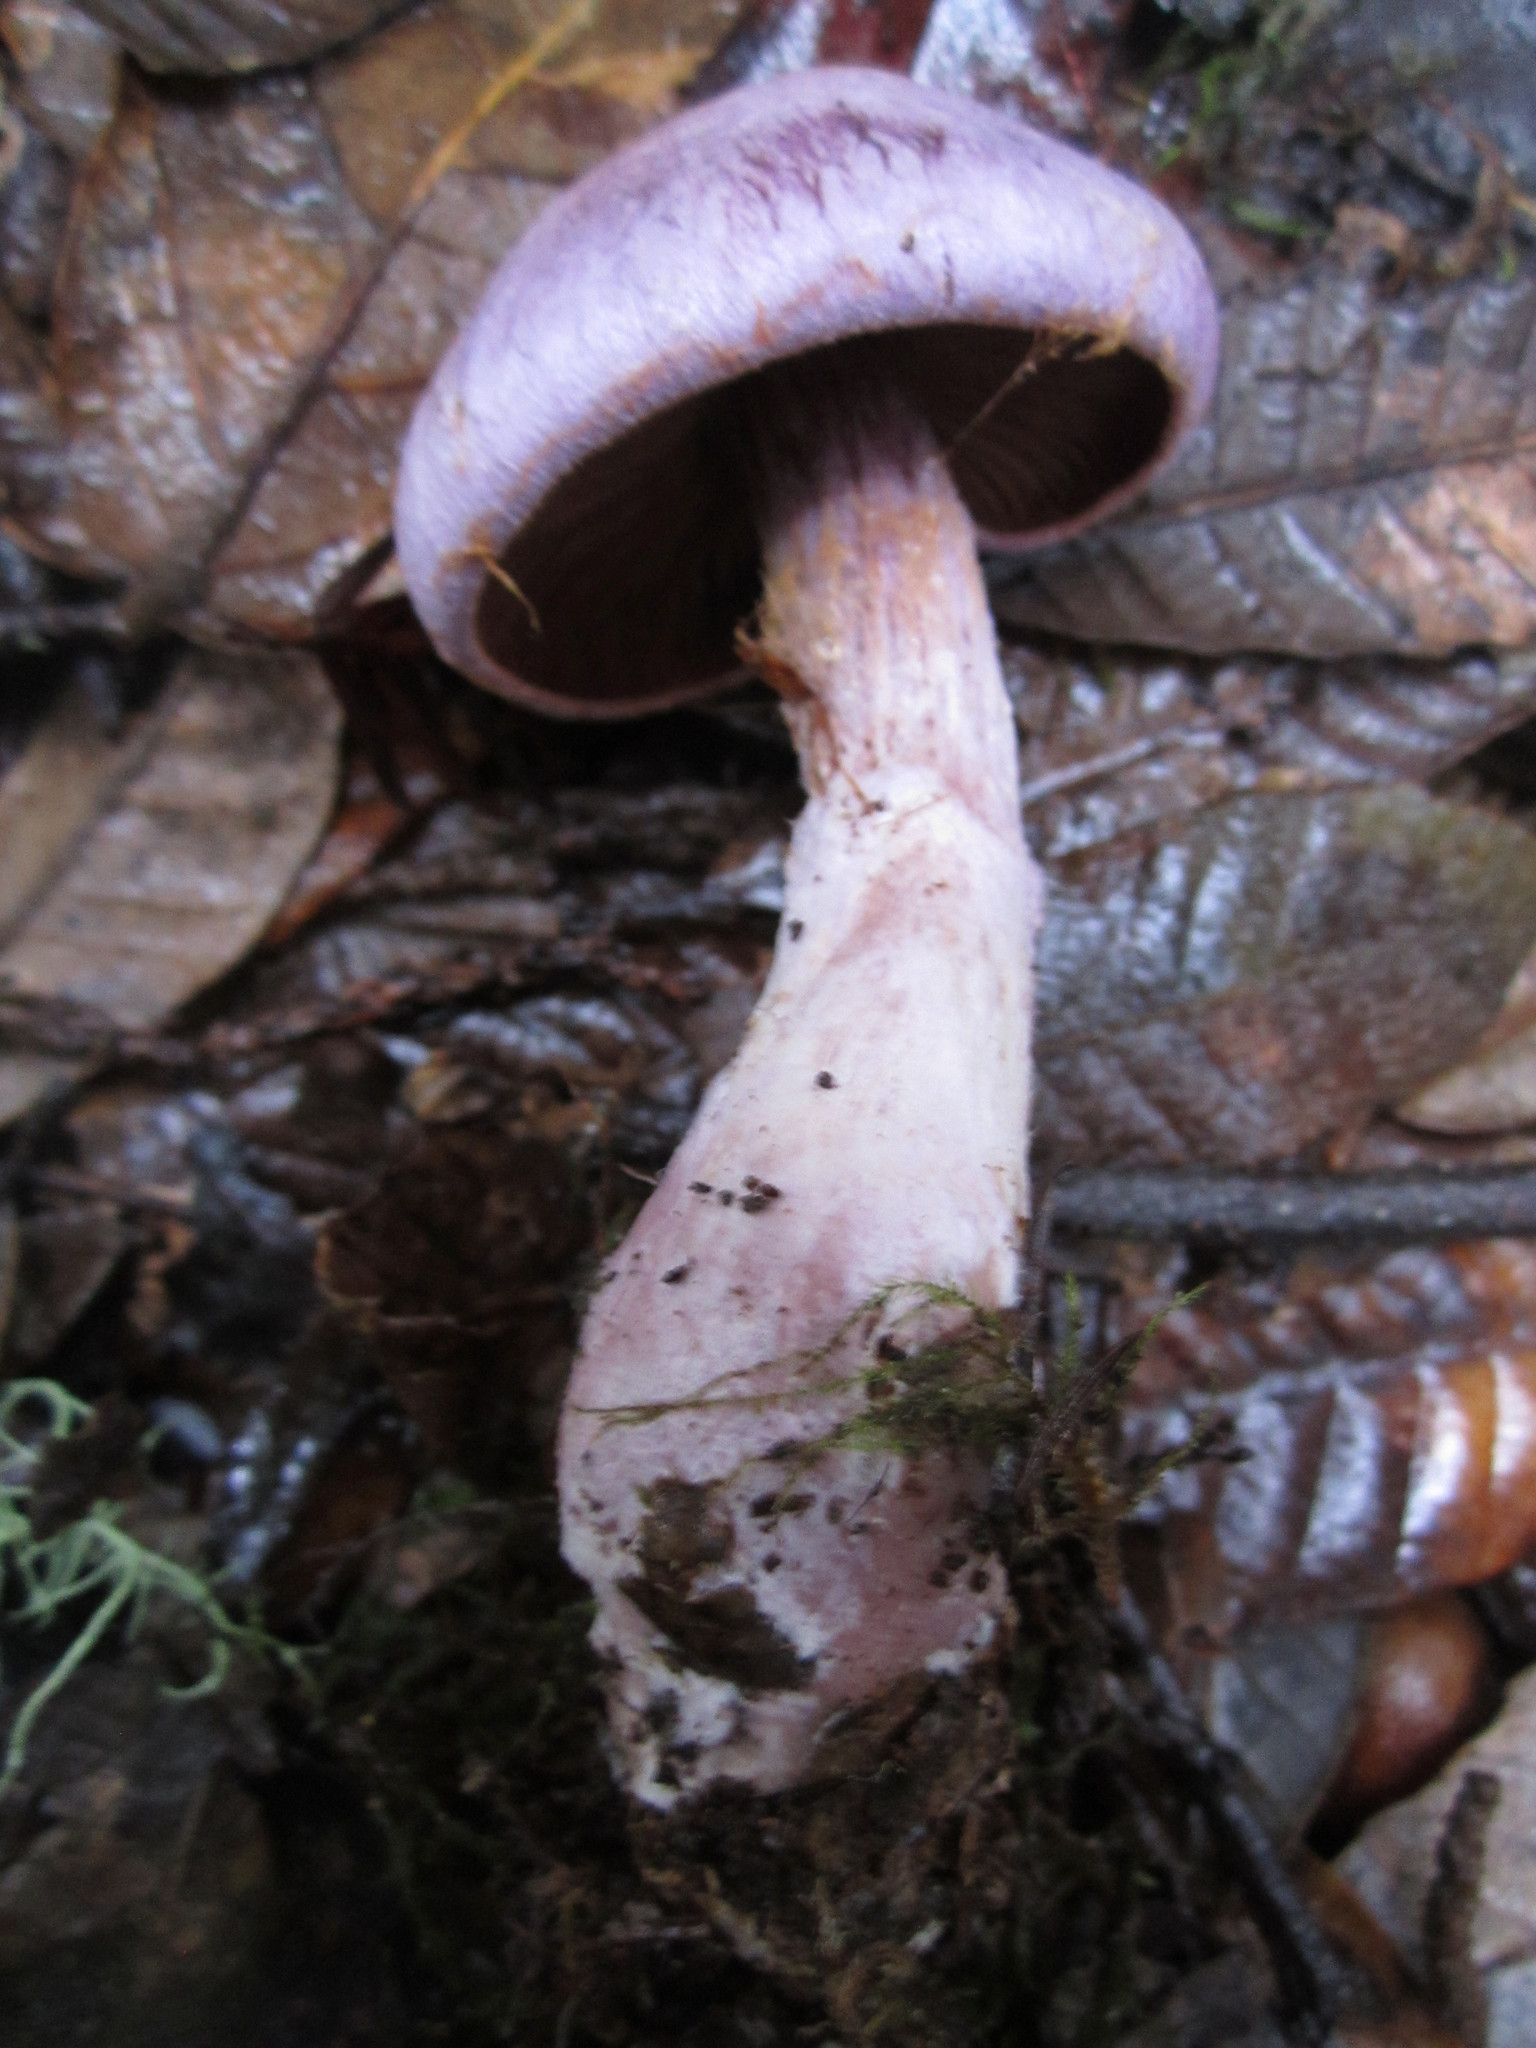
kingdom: Fungi
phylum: Basidiomycota
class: Agaricomycetes
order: Agaricales
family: Cortinariaceae
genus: Cortinarius
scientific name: Cortinarius traganus
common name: Gassy webcap
